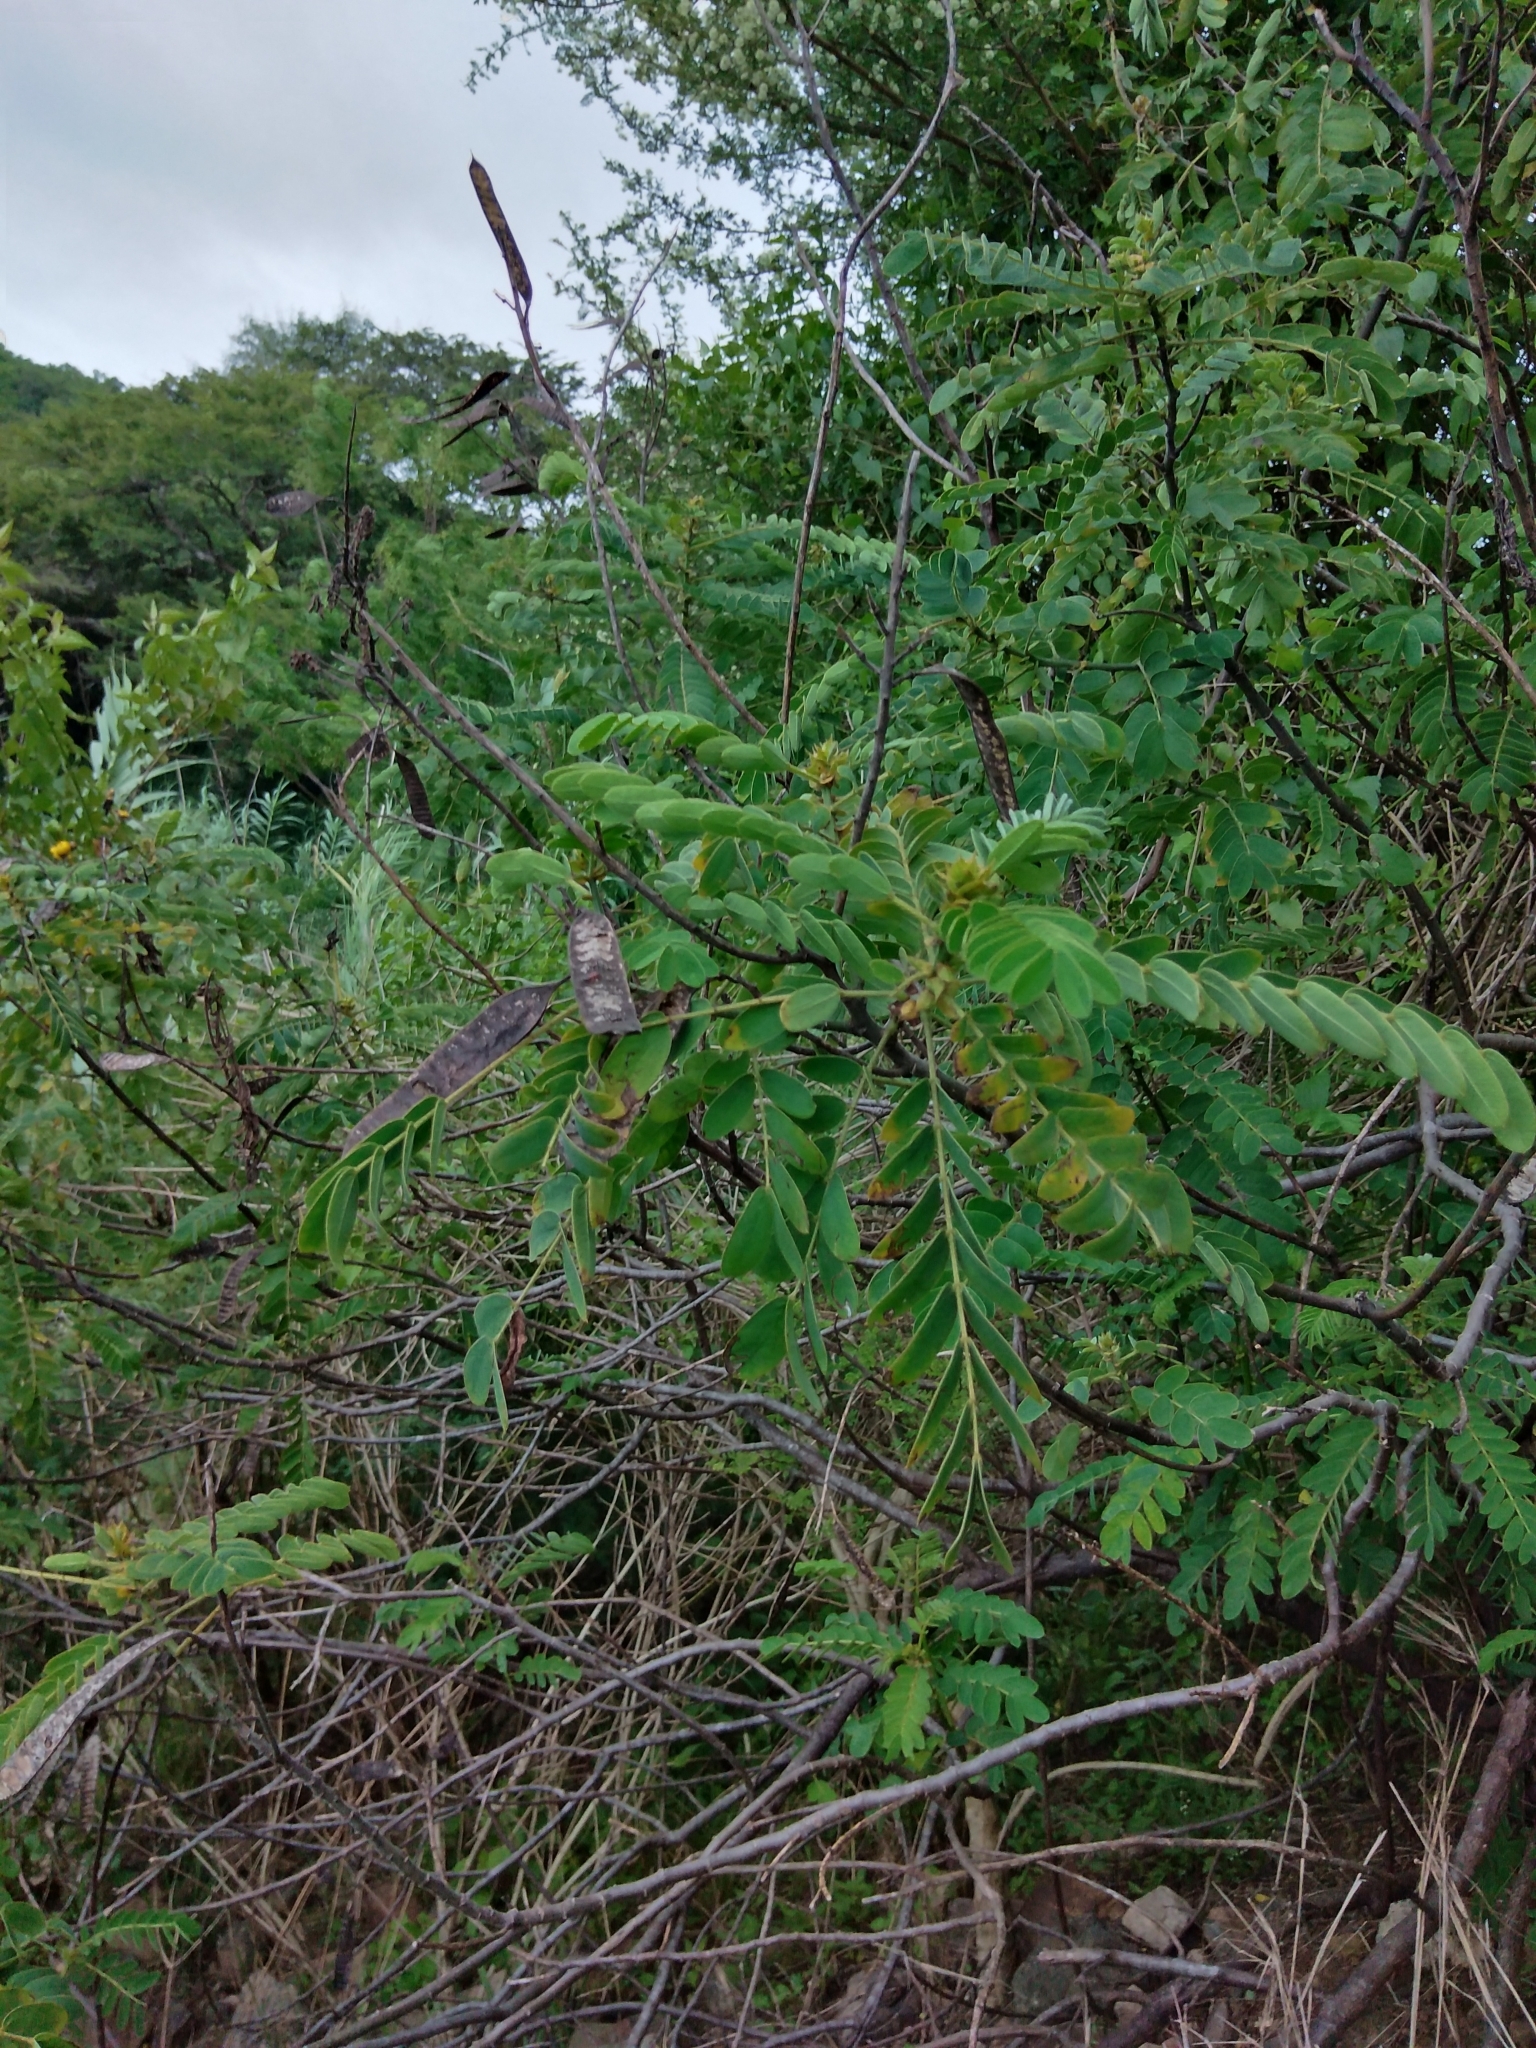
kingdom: Plantae
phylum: Tracheophyta
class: Magnoliopsida
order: Fabales
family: Fabaceae
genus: Senna
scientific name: Senna didymobotrya
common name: African senna
